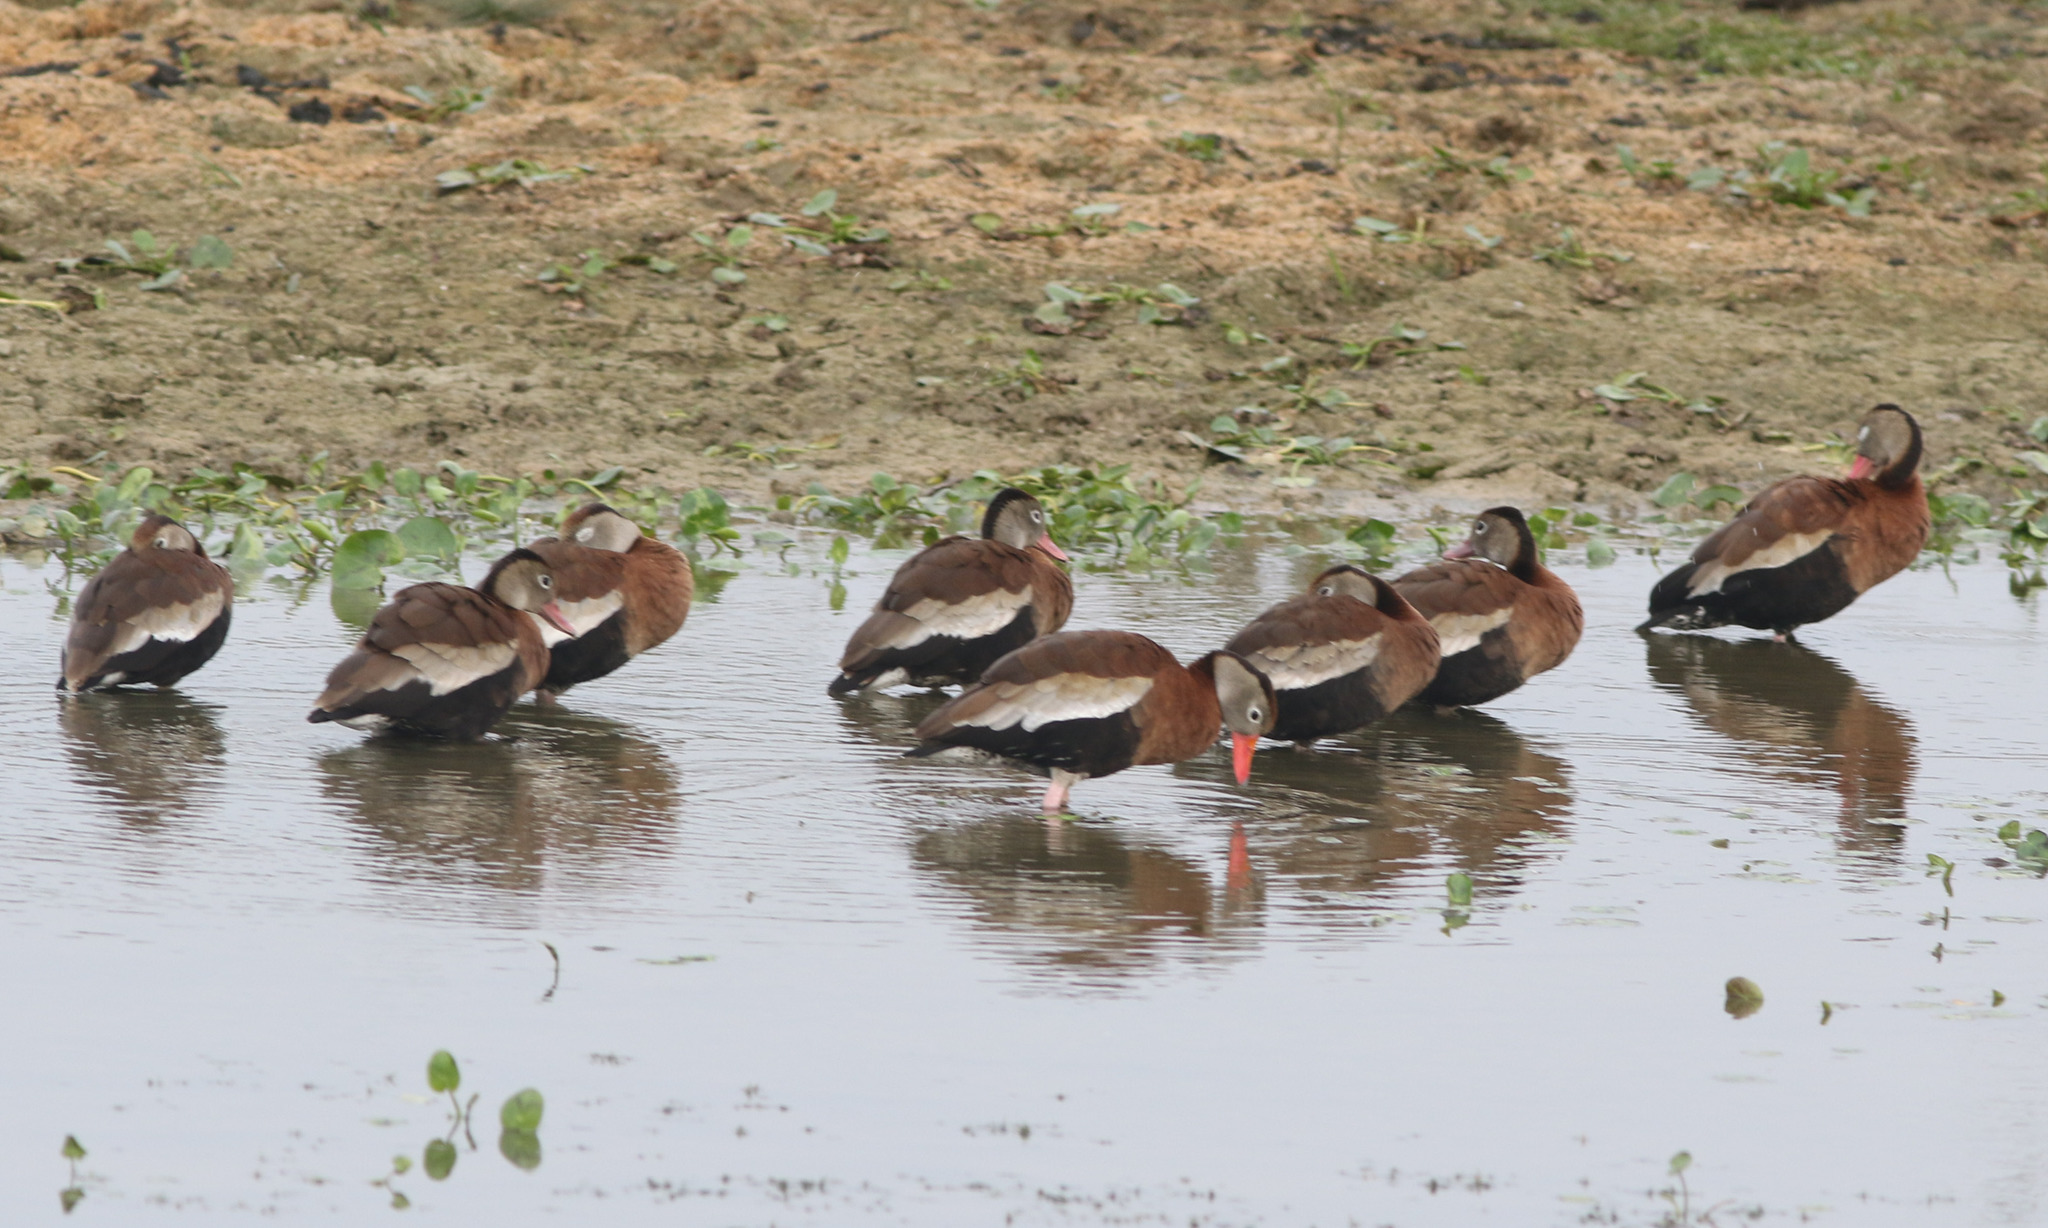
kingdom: Animalia
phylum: Chordata
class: Aves
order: Anseriformes
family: Anatidae
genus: Dendrocygna
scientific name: Dendrocygna autumnalis
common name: Black-bellied whistling duck
